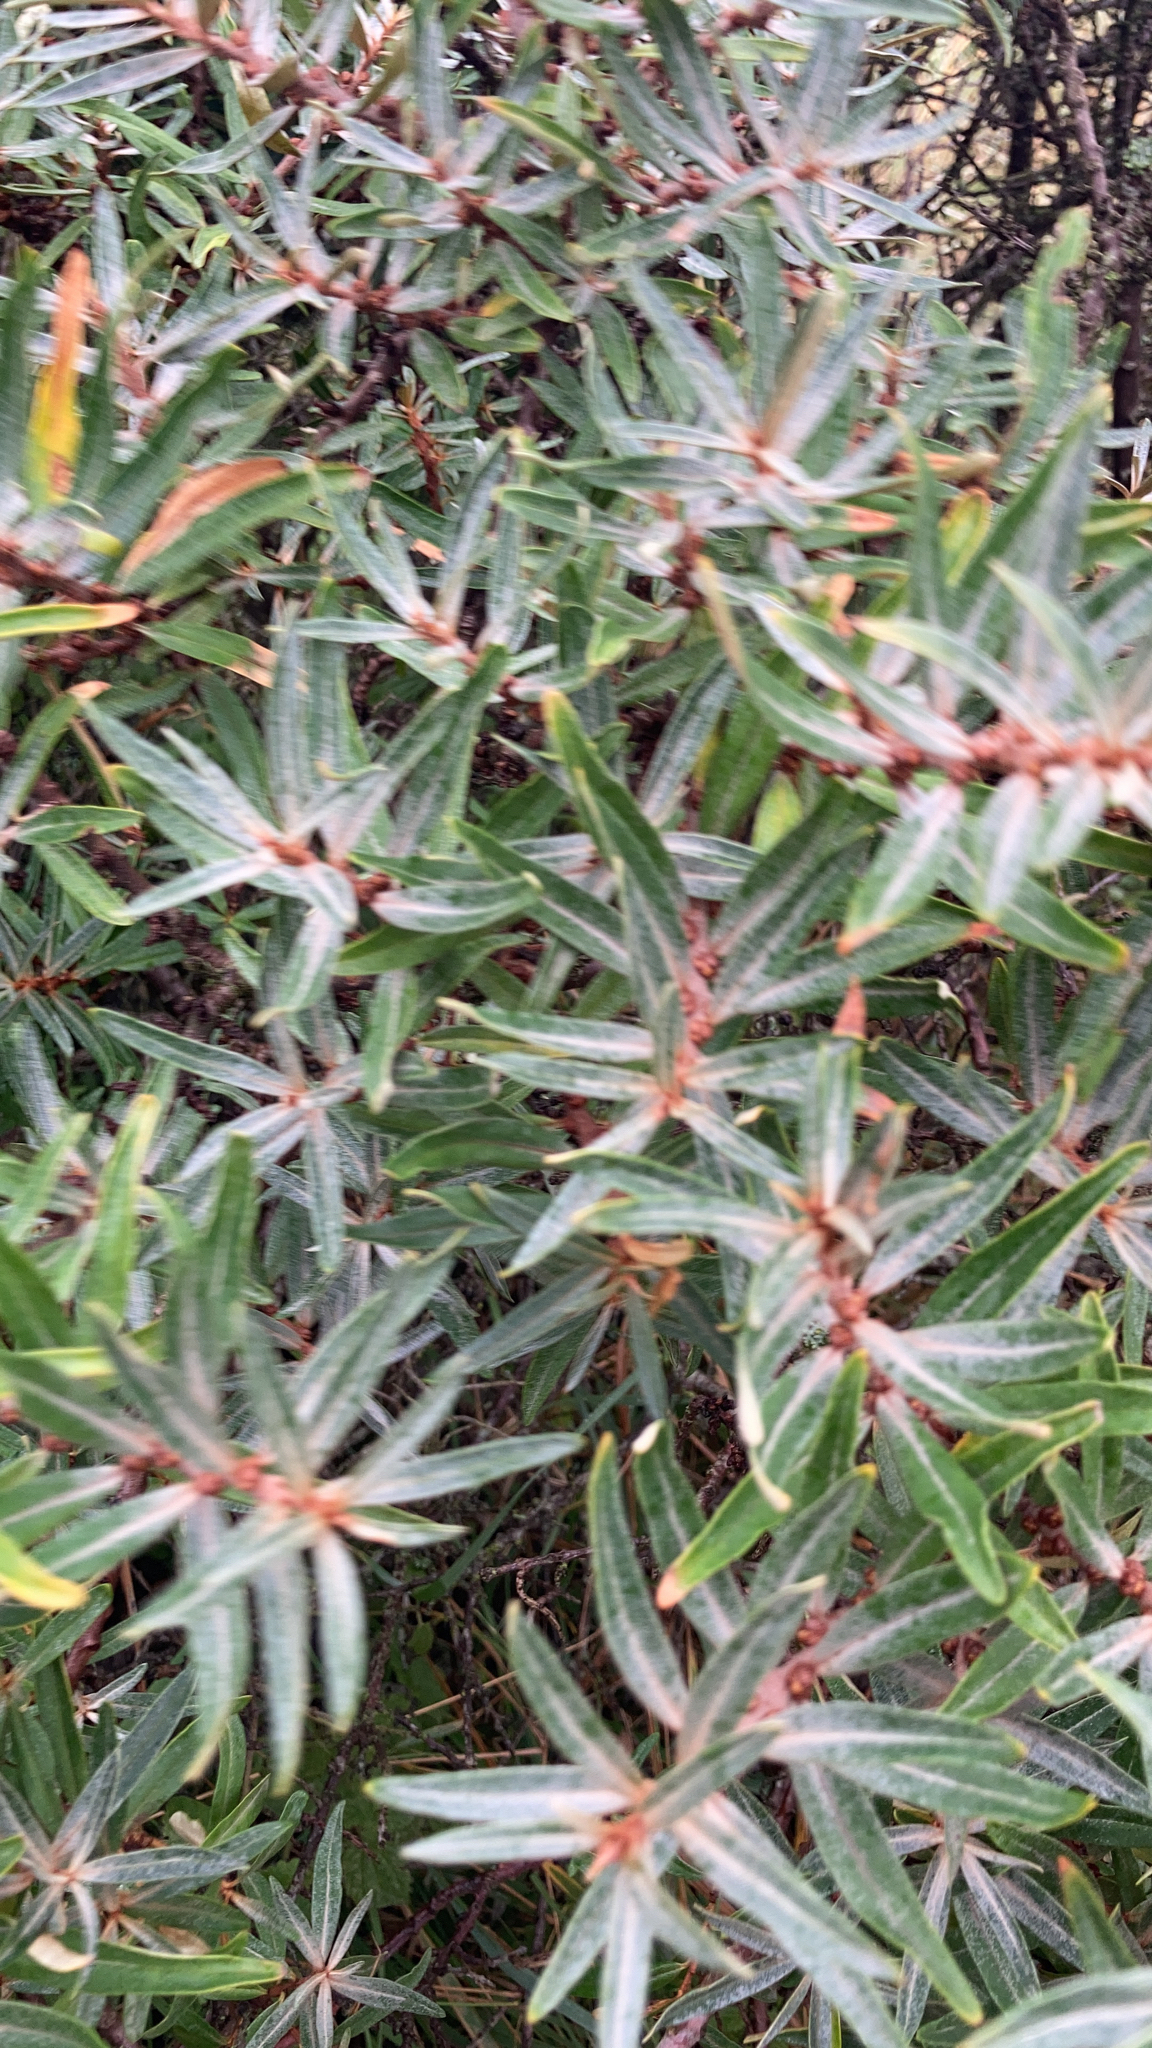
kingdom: Plantae
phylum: Tracheophyta
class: Magnoliopsida
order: Rosales
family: Elaeagnaceae
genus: Hippophae
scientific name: Hippophae rhamnoides
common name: Sea-buckthorn
